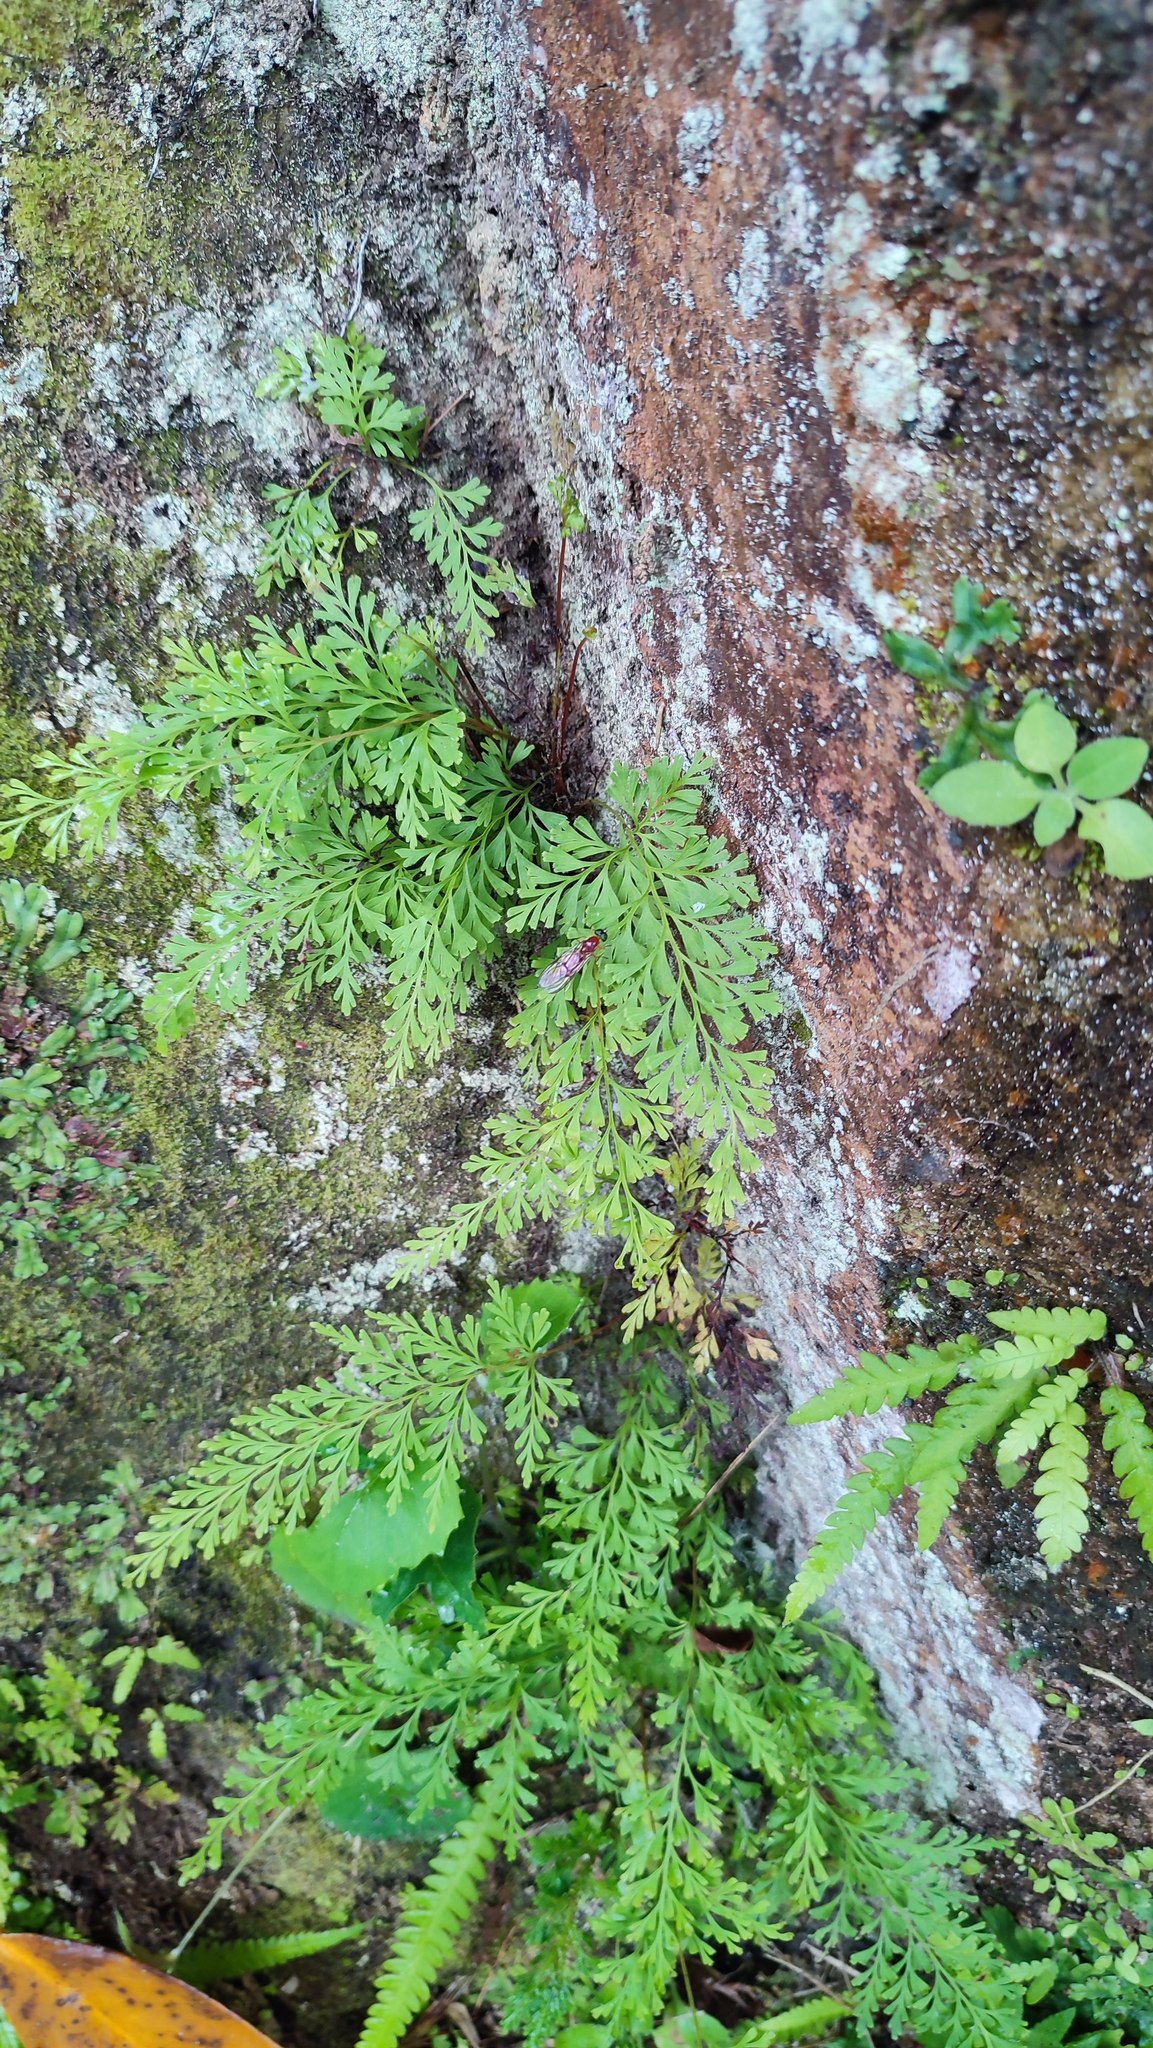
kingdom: Plantae
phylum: Tracheophyta
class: Polypodiopsida
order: Polypodiales
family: Lindsaeaceae
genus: Odontosoria
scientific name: Odontosoria chinensis
